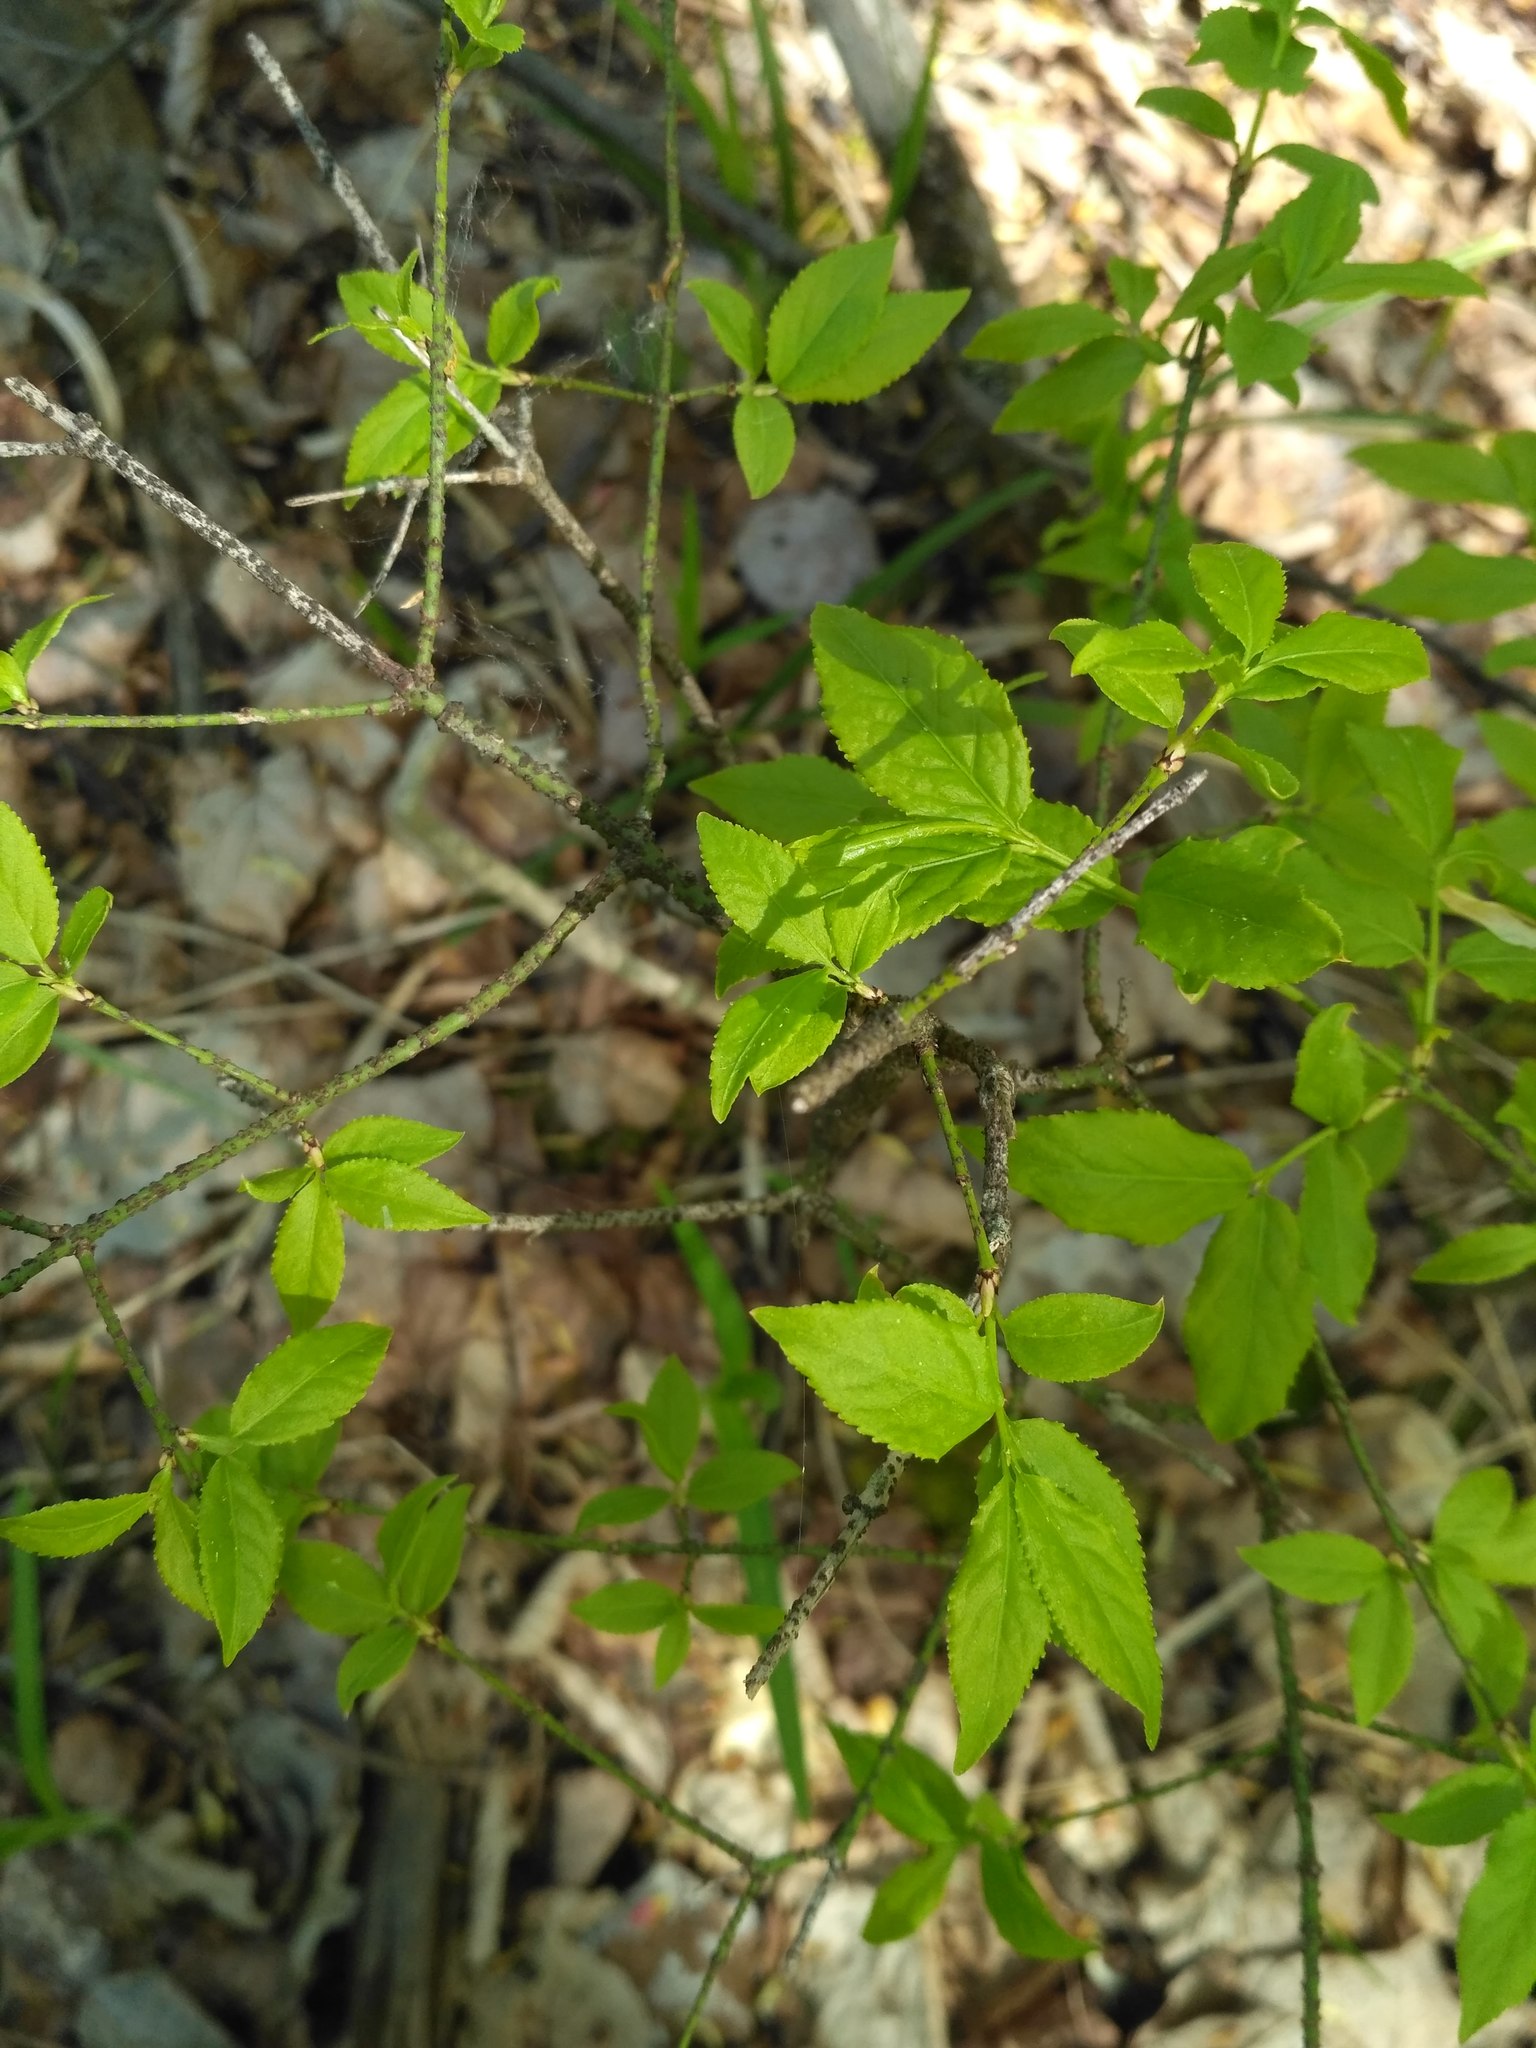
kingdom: Plantae
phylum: Tracheophyta
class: Magnoliopsida
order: Celastrales
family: Celastraceae
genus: Euonymus
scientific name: Euonymus verrucosus
